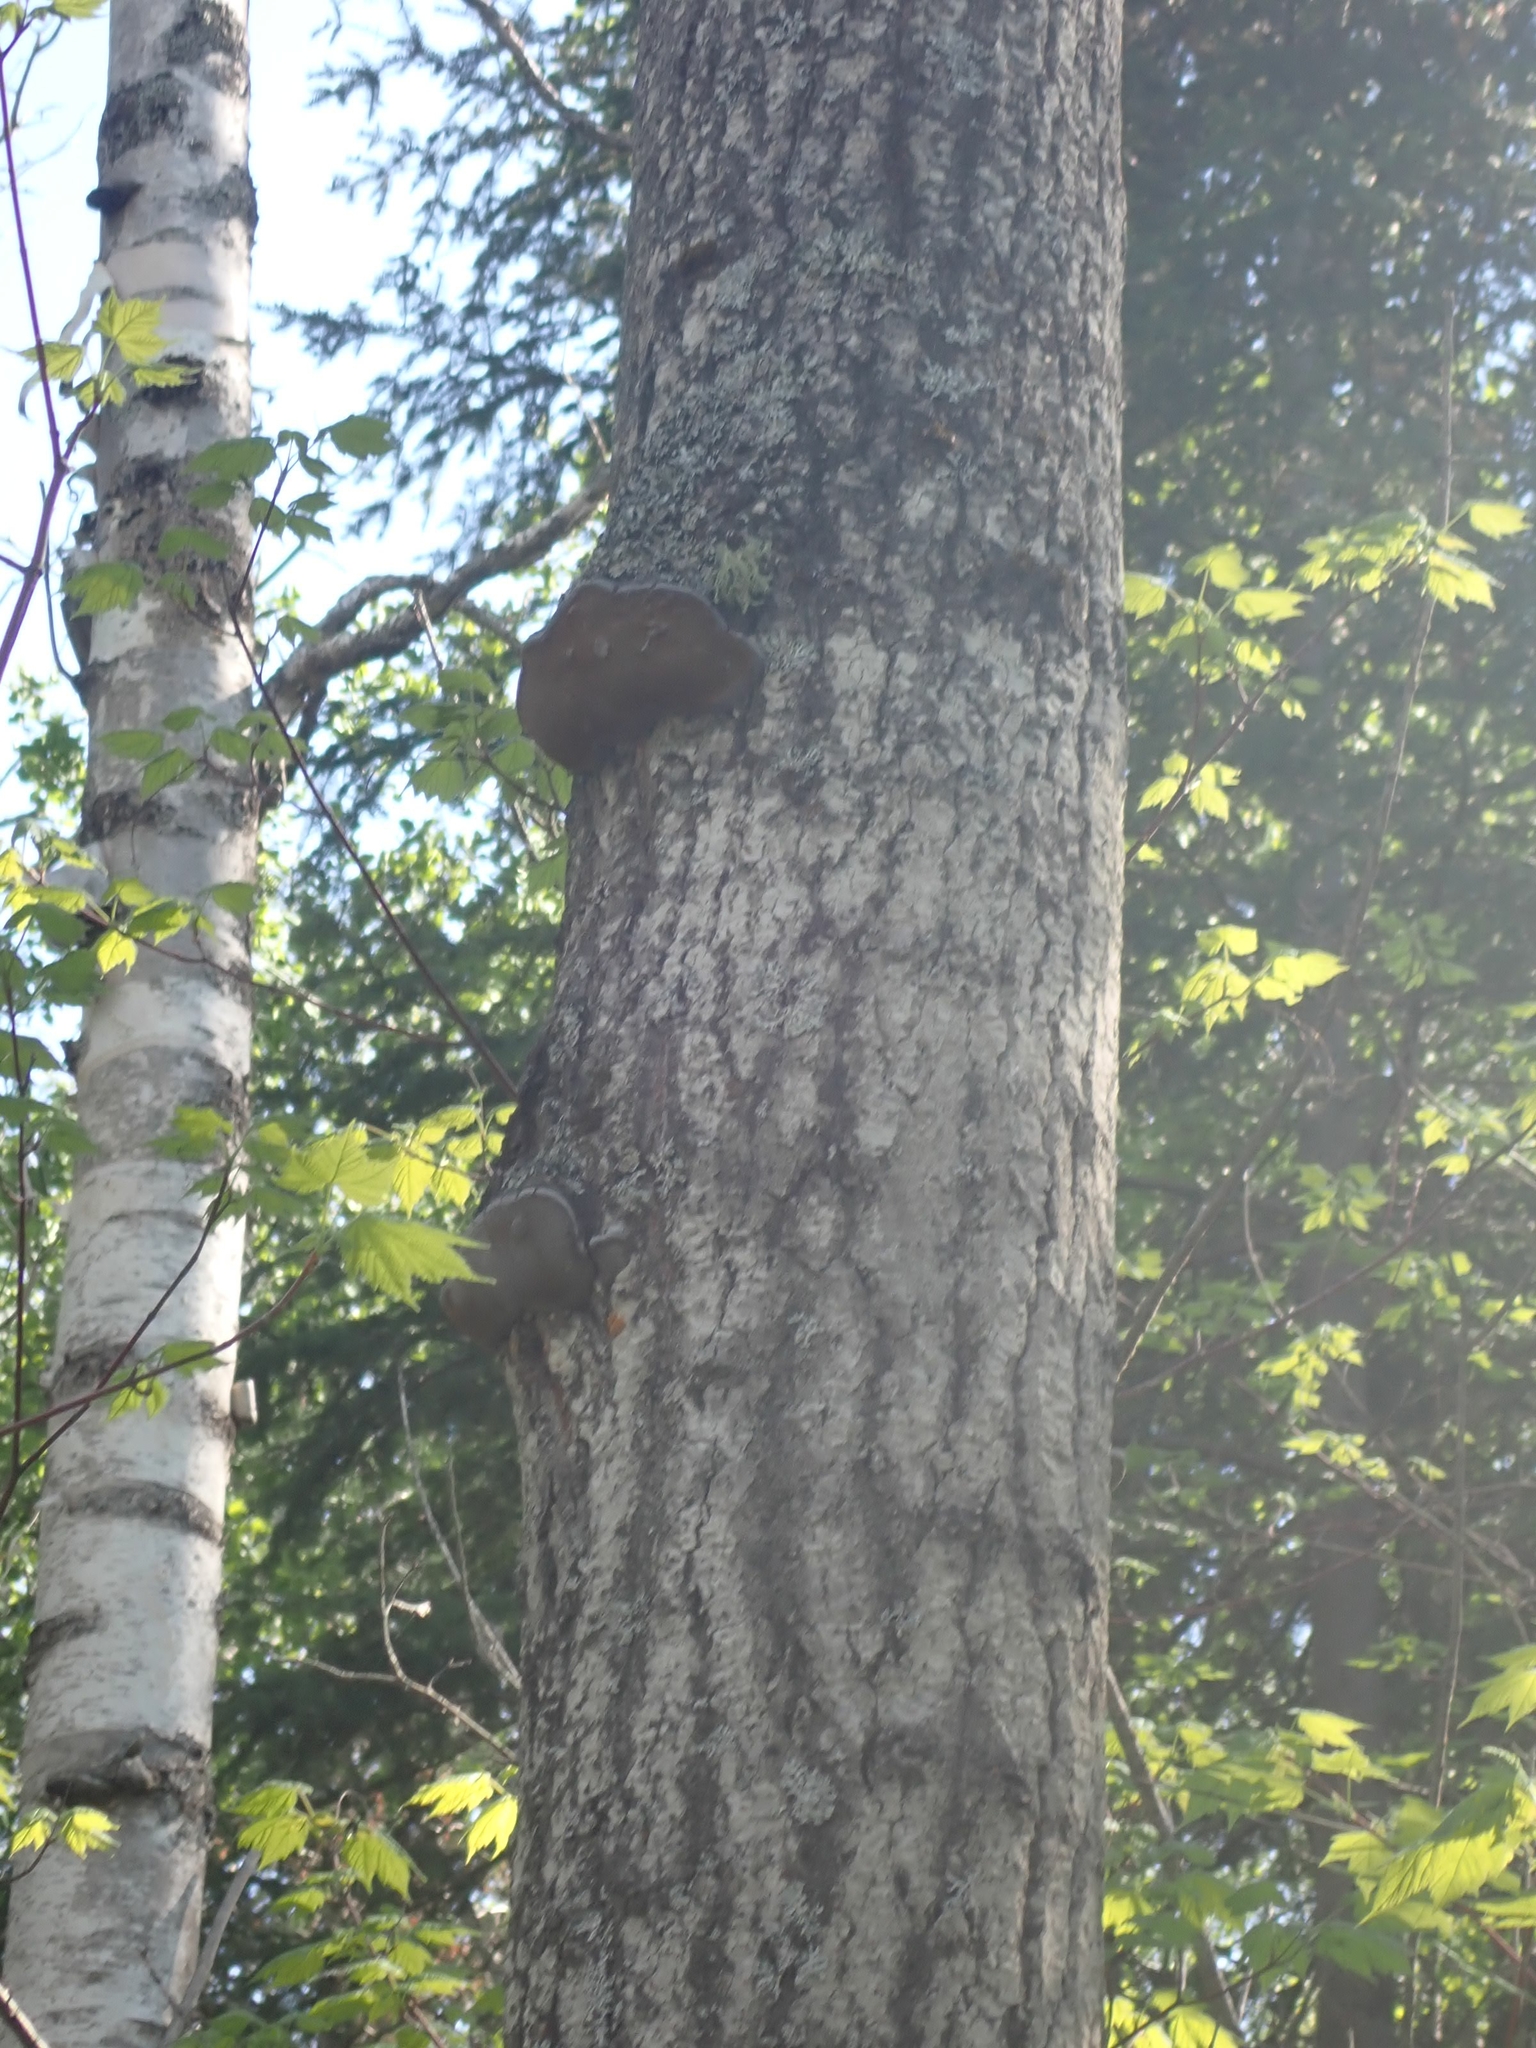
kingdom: Fungi
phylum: Basidiomycota
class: Agaricomycetes
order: Hymenochaetales
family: Hymenochaetaceae
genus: Phellinus
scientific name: Phellinus tremulae
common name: Aspen bracket
